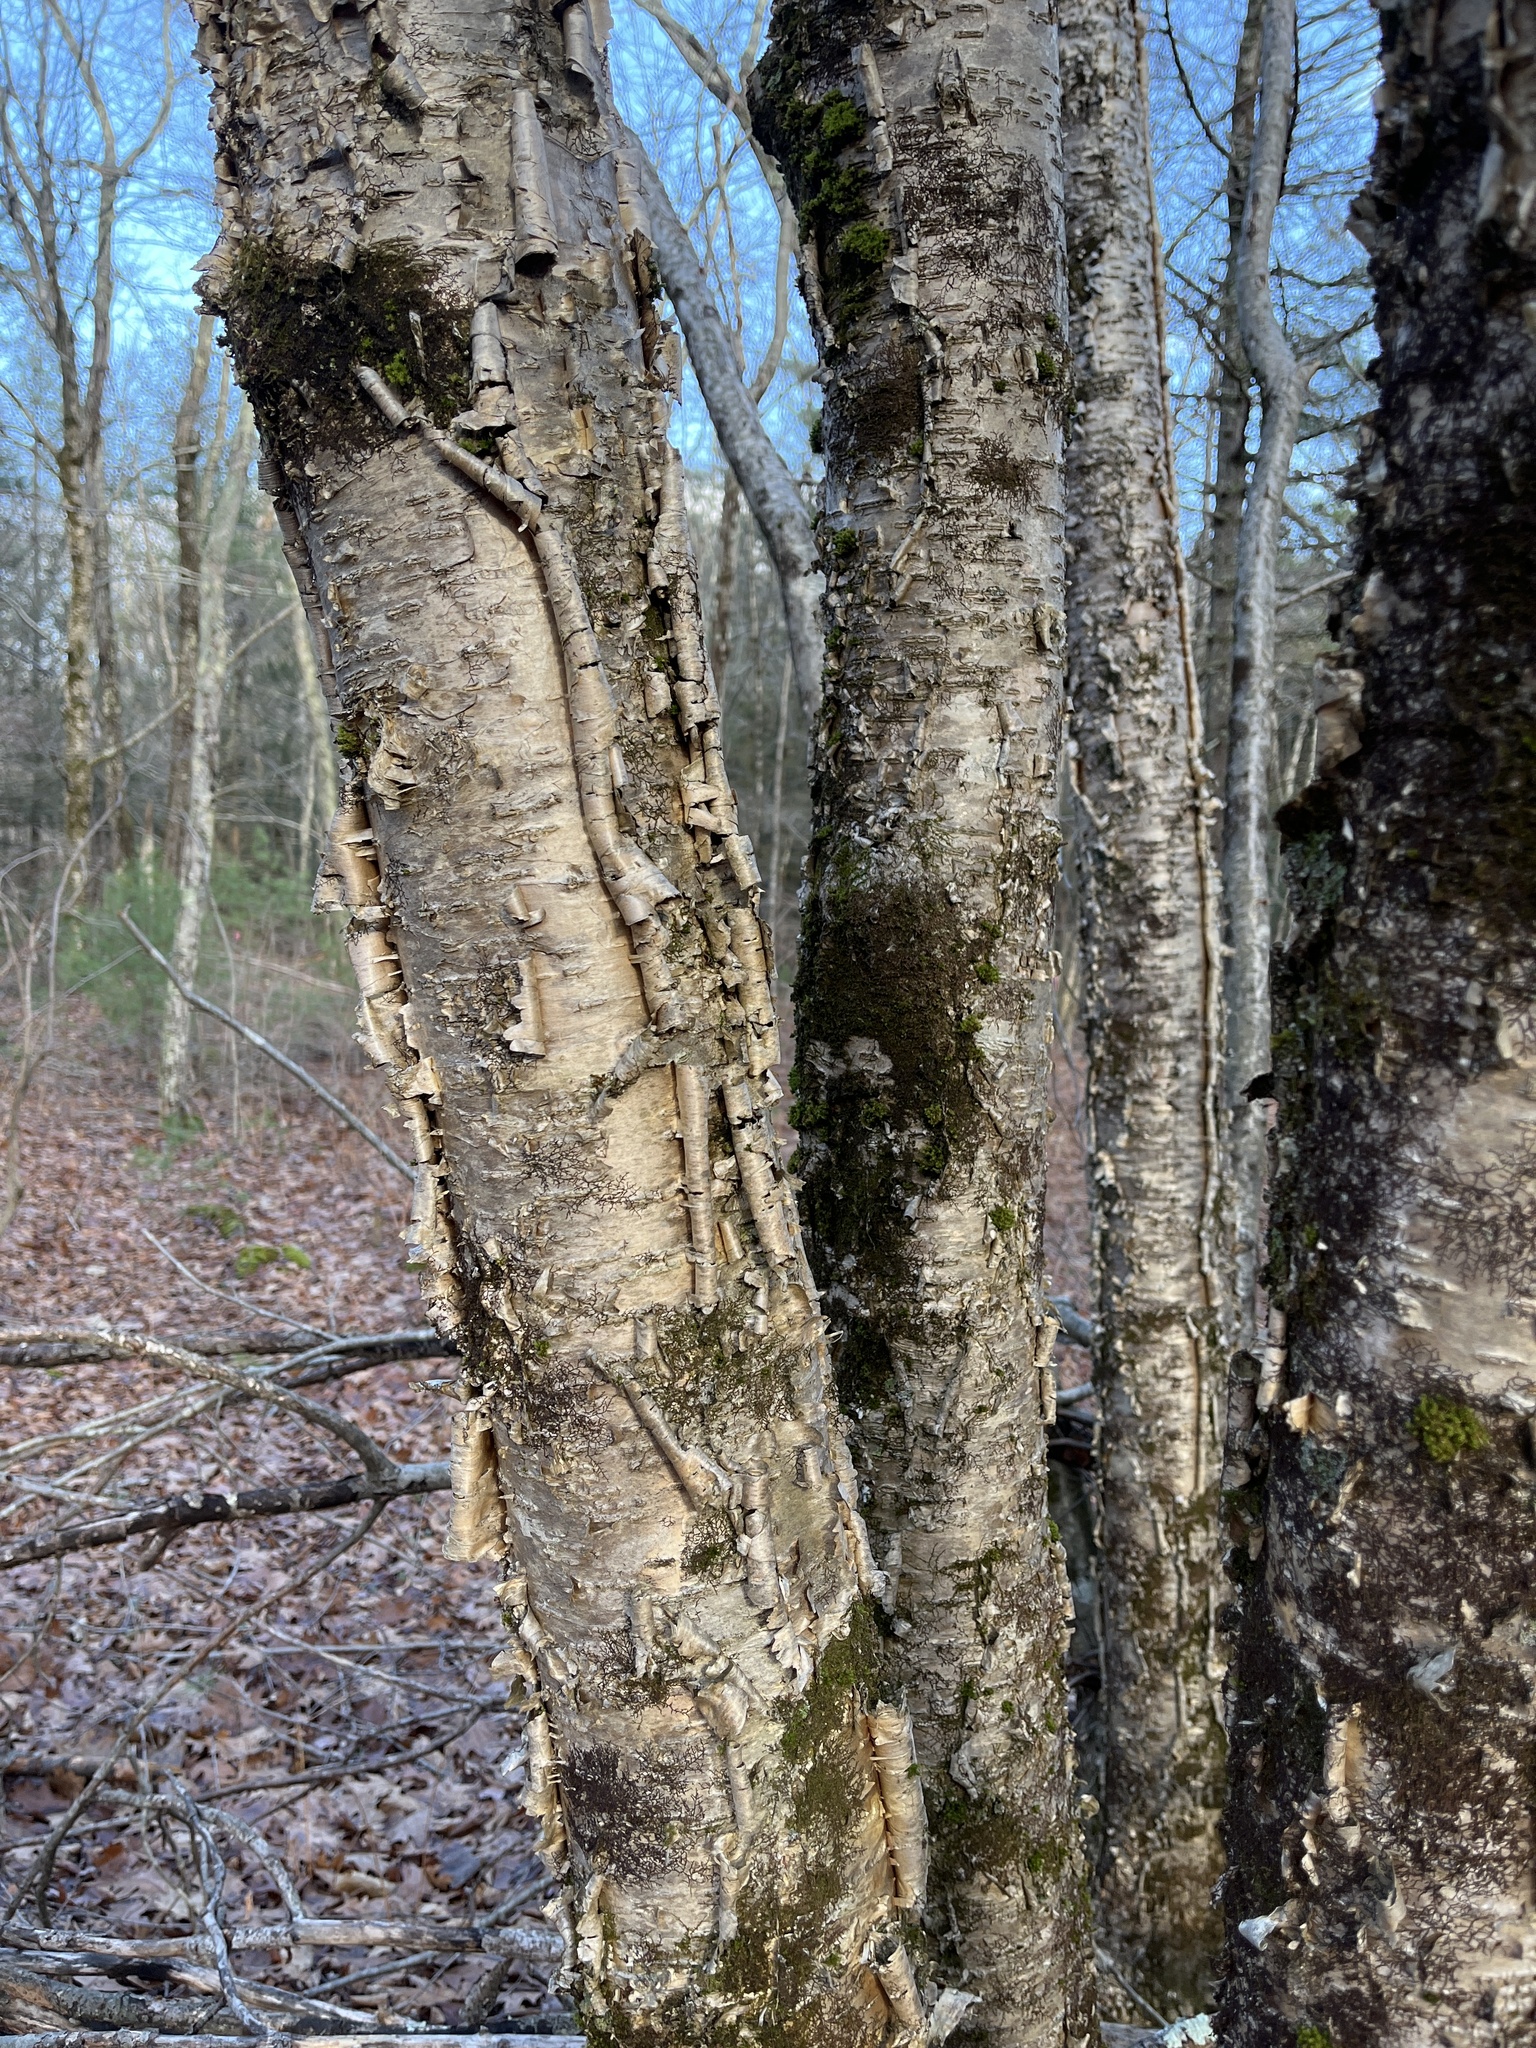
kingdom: Plantae
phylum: Tracheophyta
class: Magnoliopsida
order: Fagales
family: Betulaceae
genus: Betula
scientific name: Betula alleghaniensis
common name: Yellow birch
